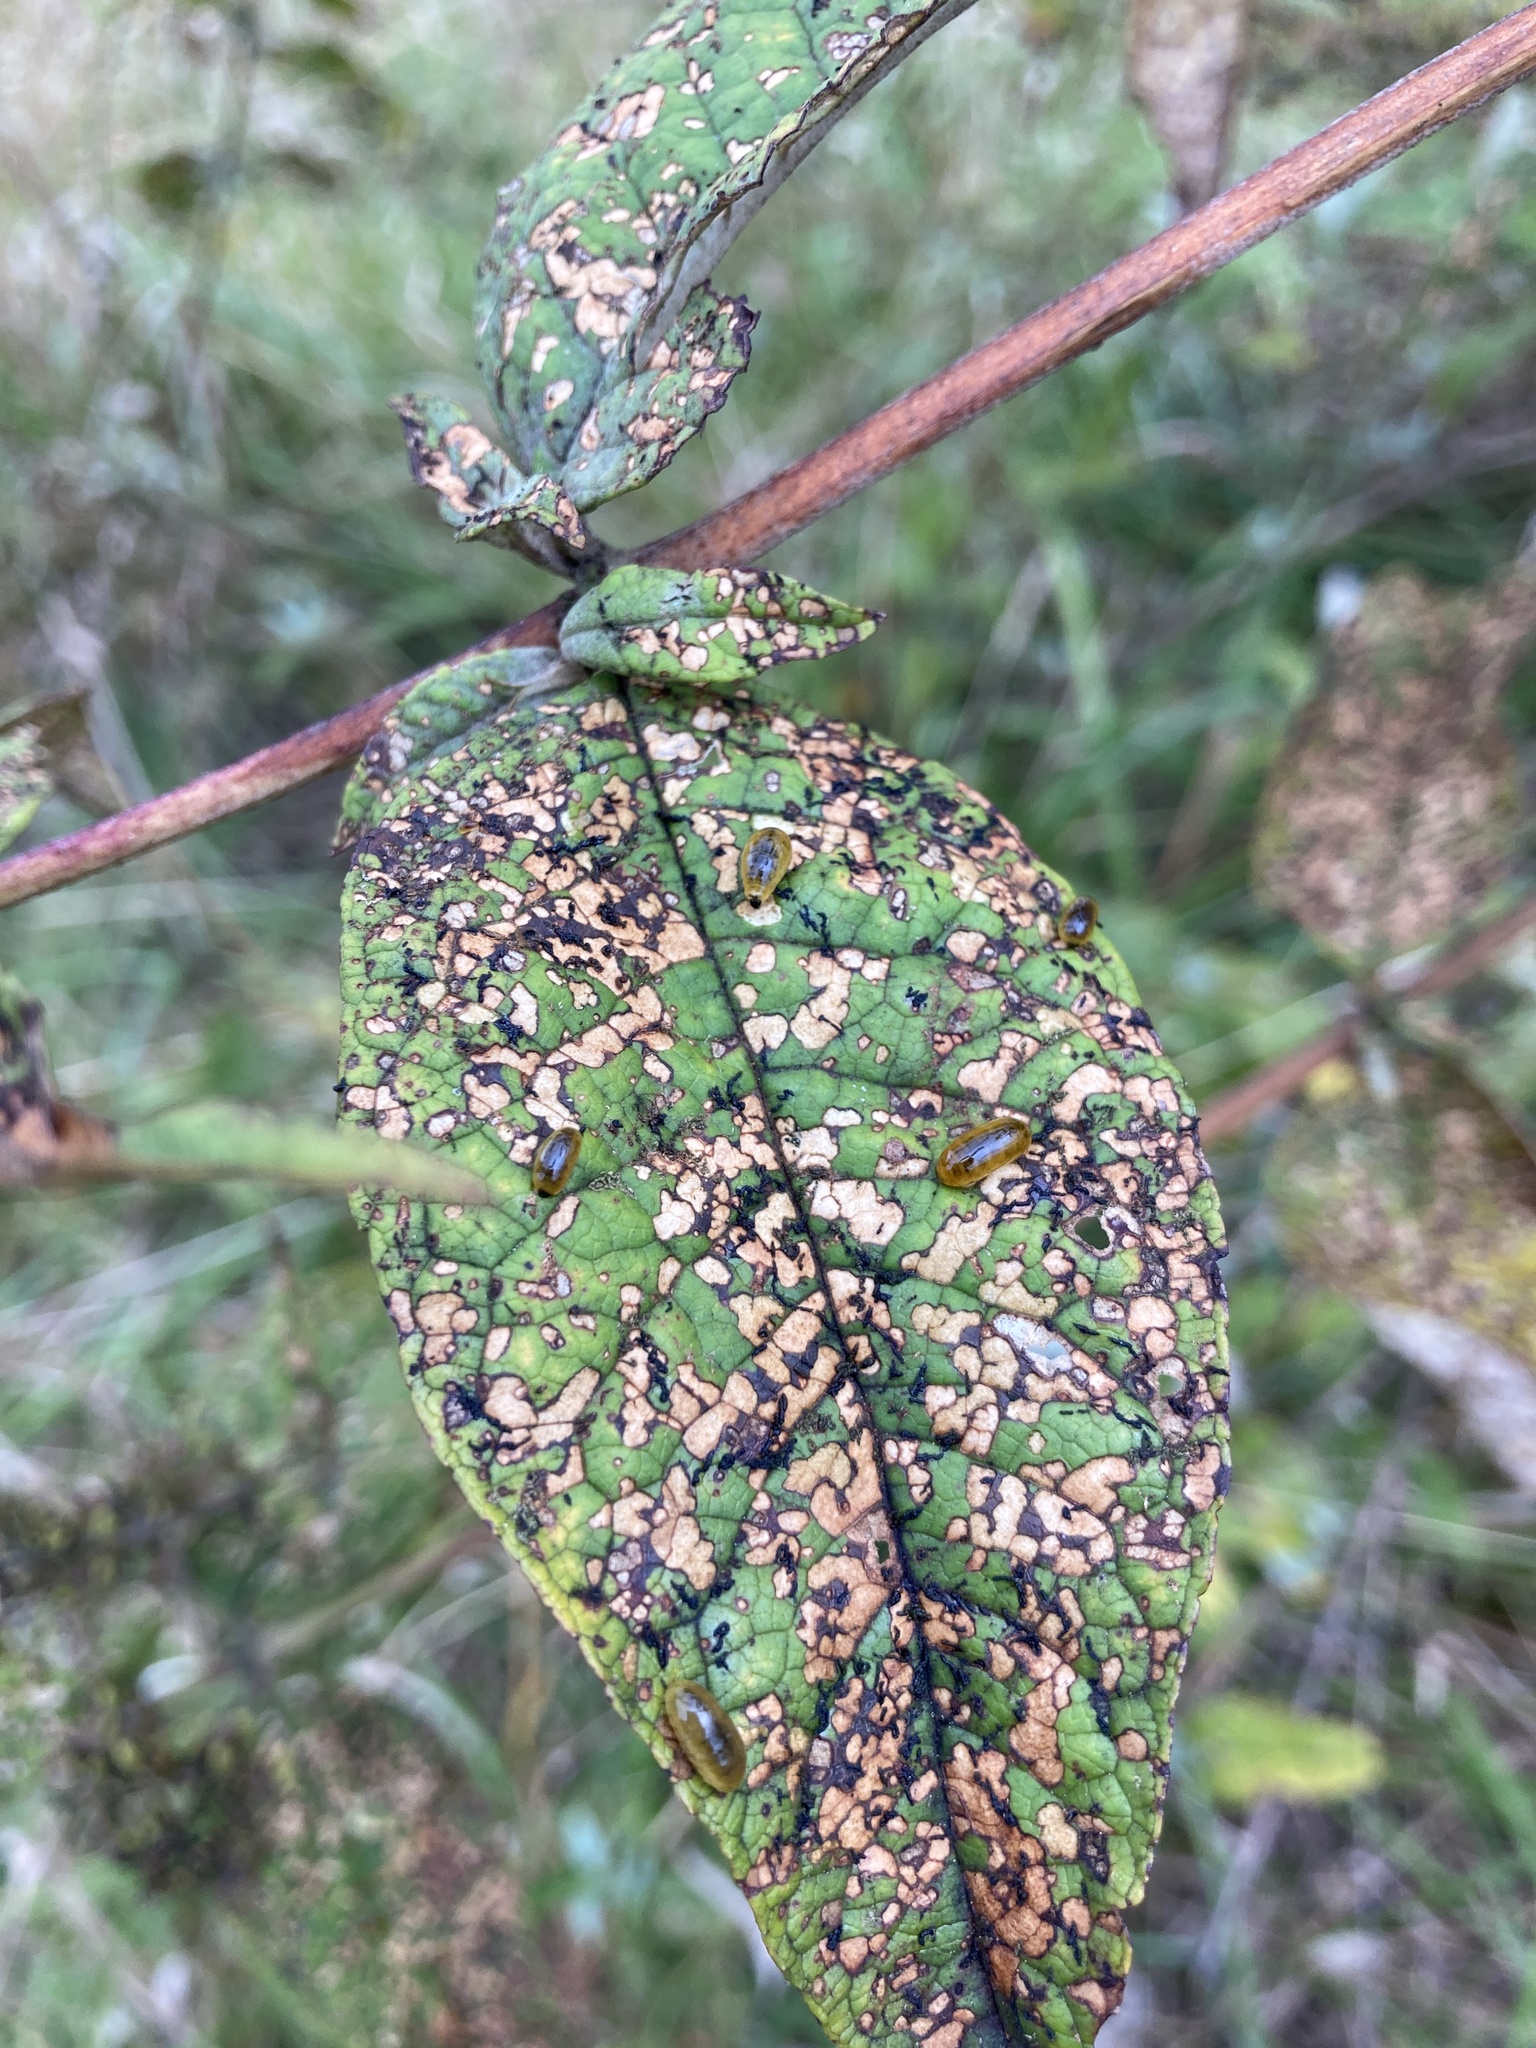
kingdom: Animalia
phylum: Arthropoda
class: Insecta
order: Coleoptera
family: Curculionidae
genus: Cleopus
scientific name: Cleopus japonicus
